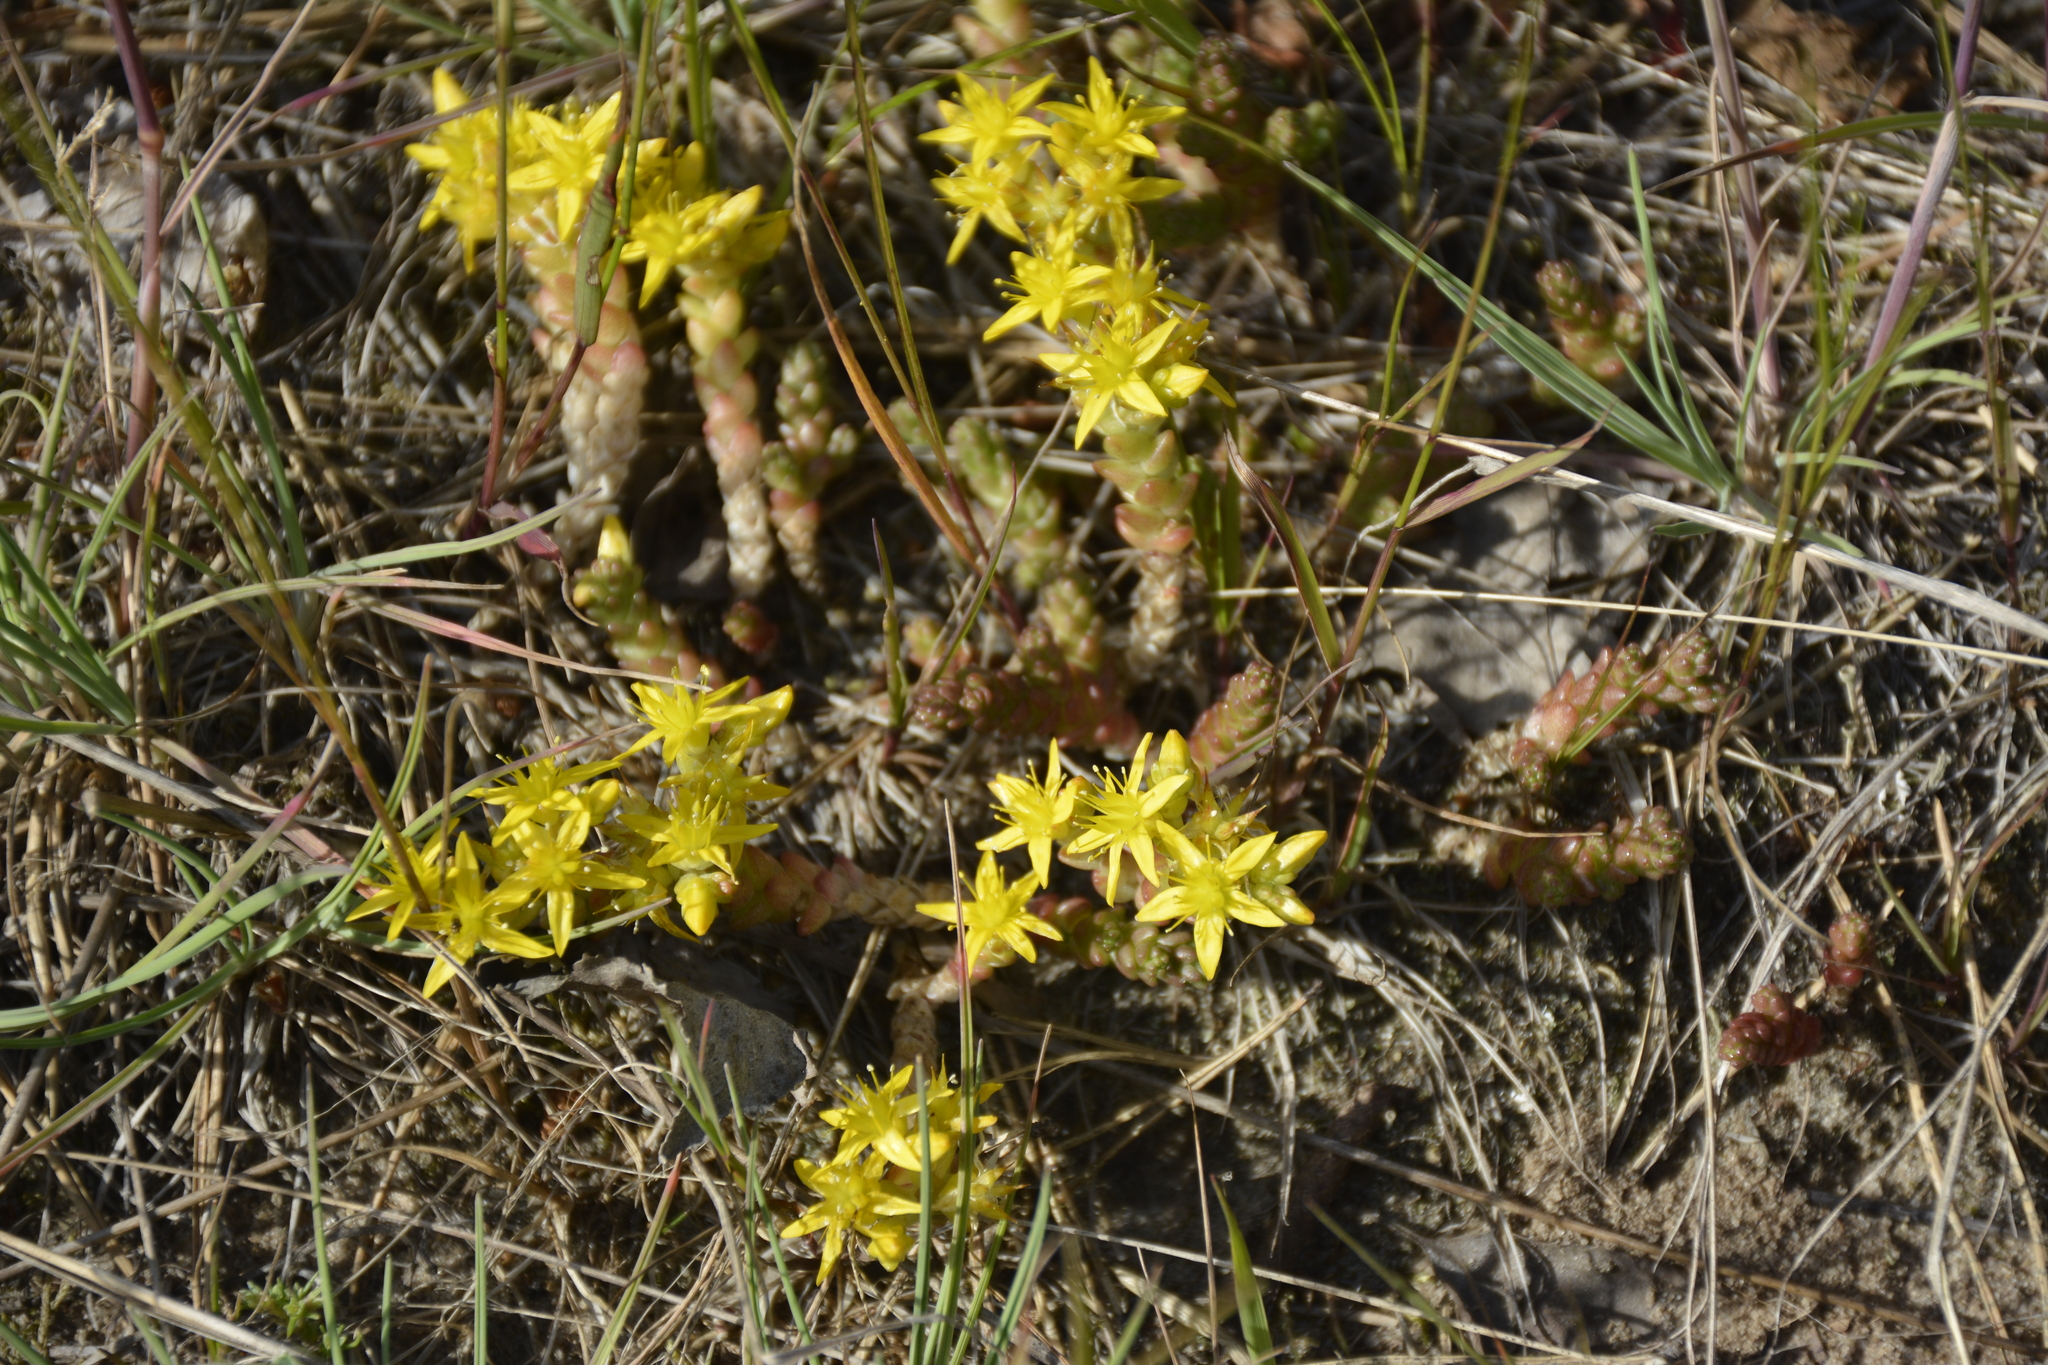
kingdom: Plantae
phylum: Tracheophyta
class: Magnoliopsida
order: Saxifragales
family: Crassulaceae
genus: Sedum
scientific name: Sedum acre
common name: Biting stonecrop
